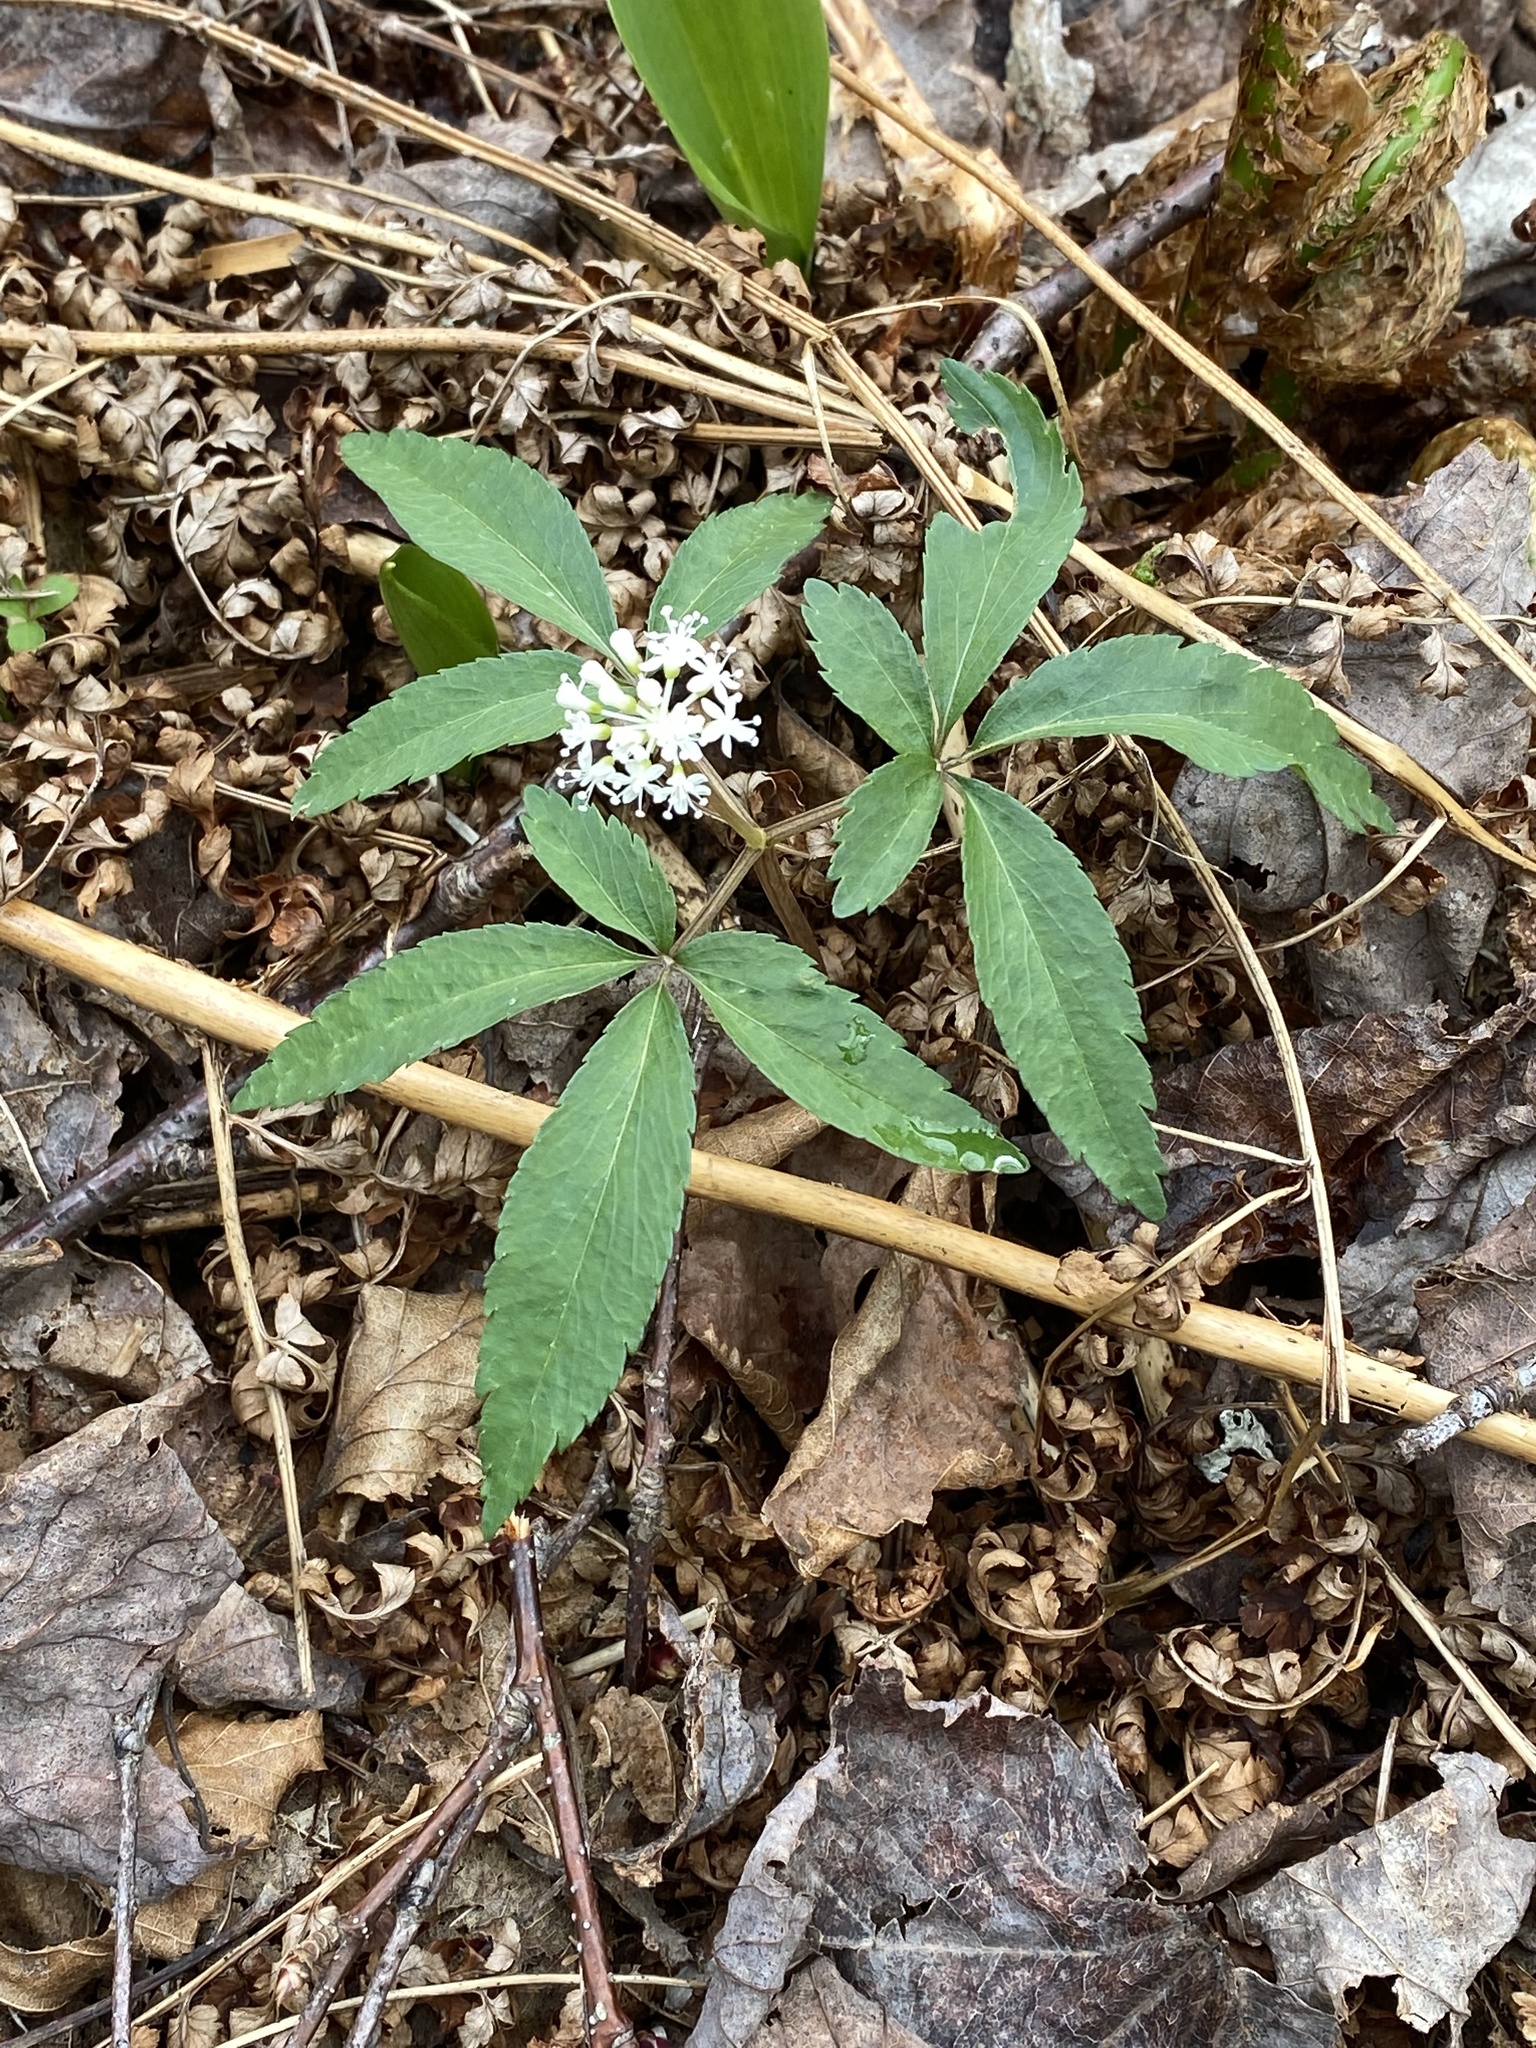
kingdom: Plantae
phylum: Tracheophyta
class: Magnoliopsida
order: Apiales
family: Araliaceae
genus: Panax
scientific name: Panax trifolius
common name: Dwarf ginseng
